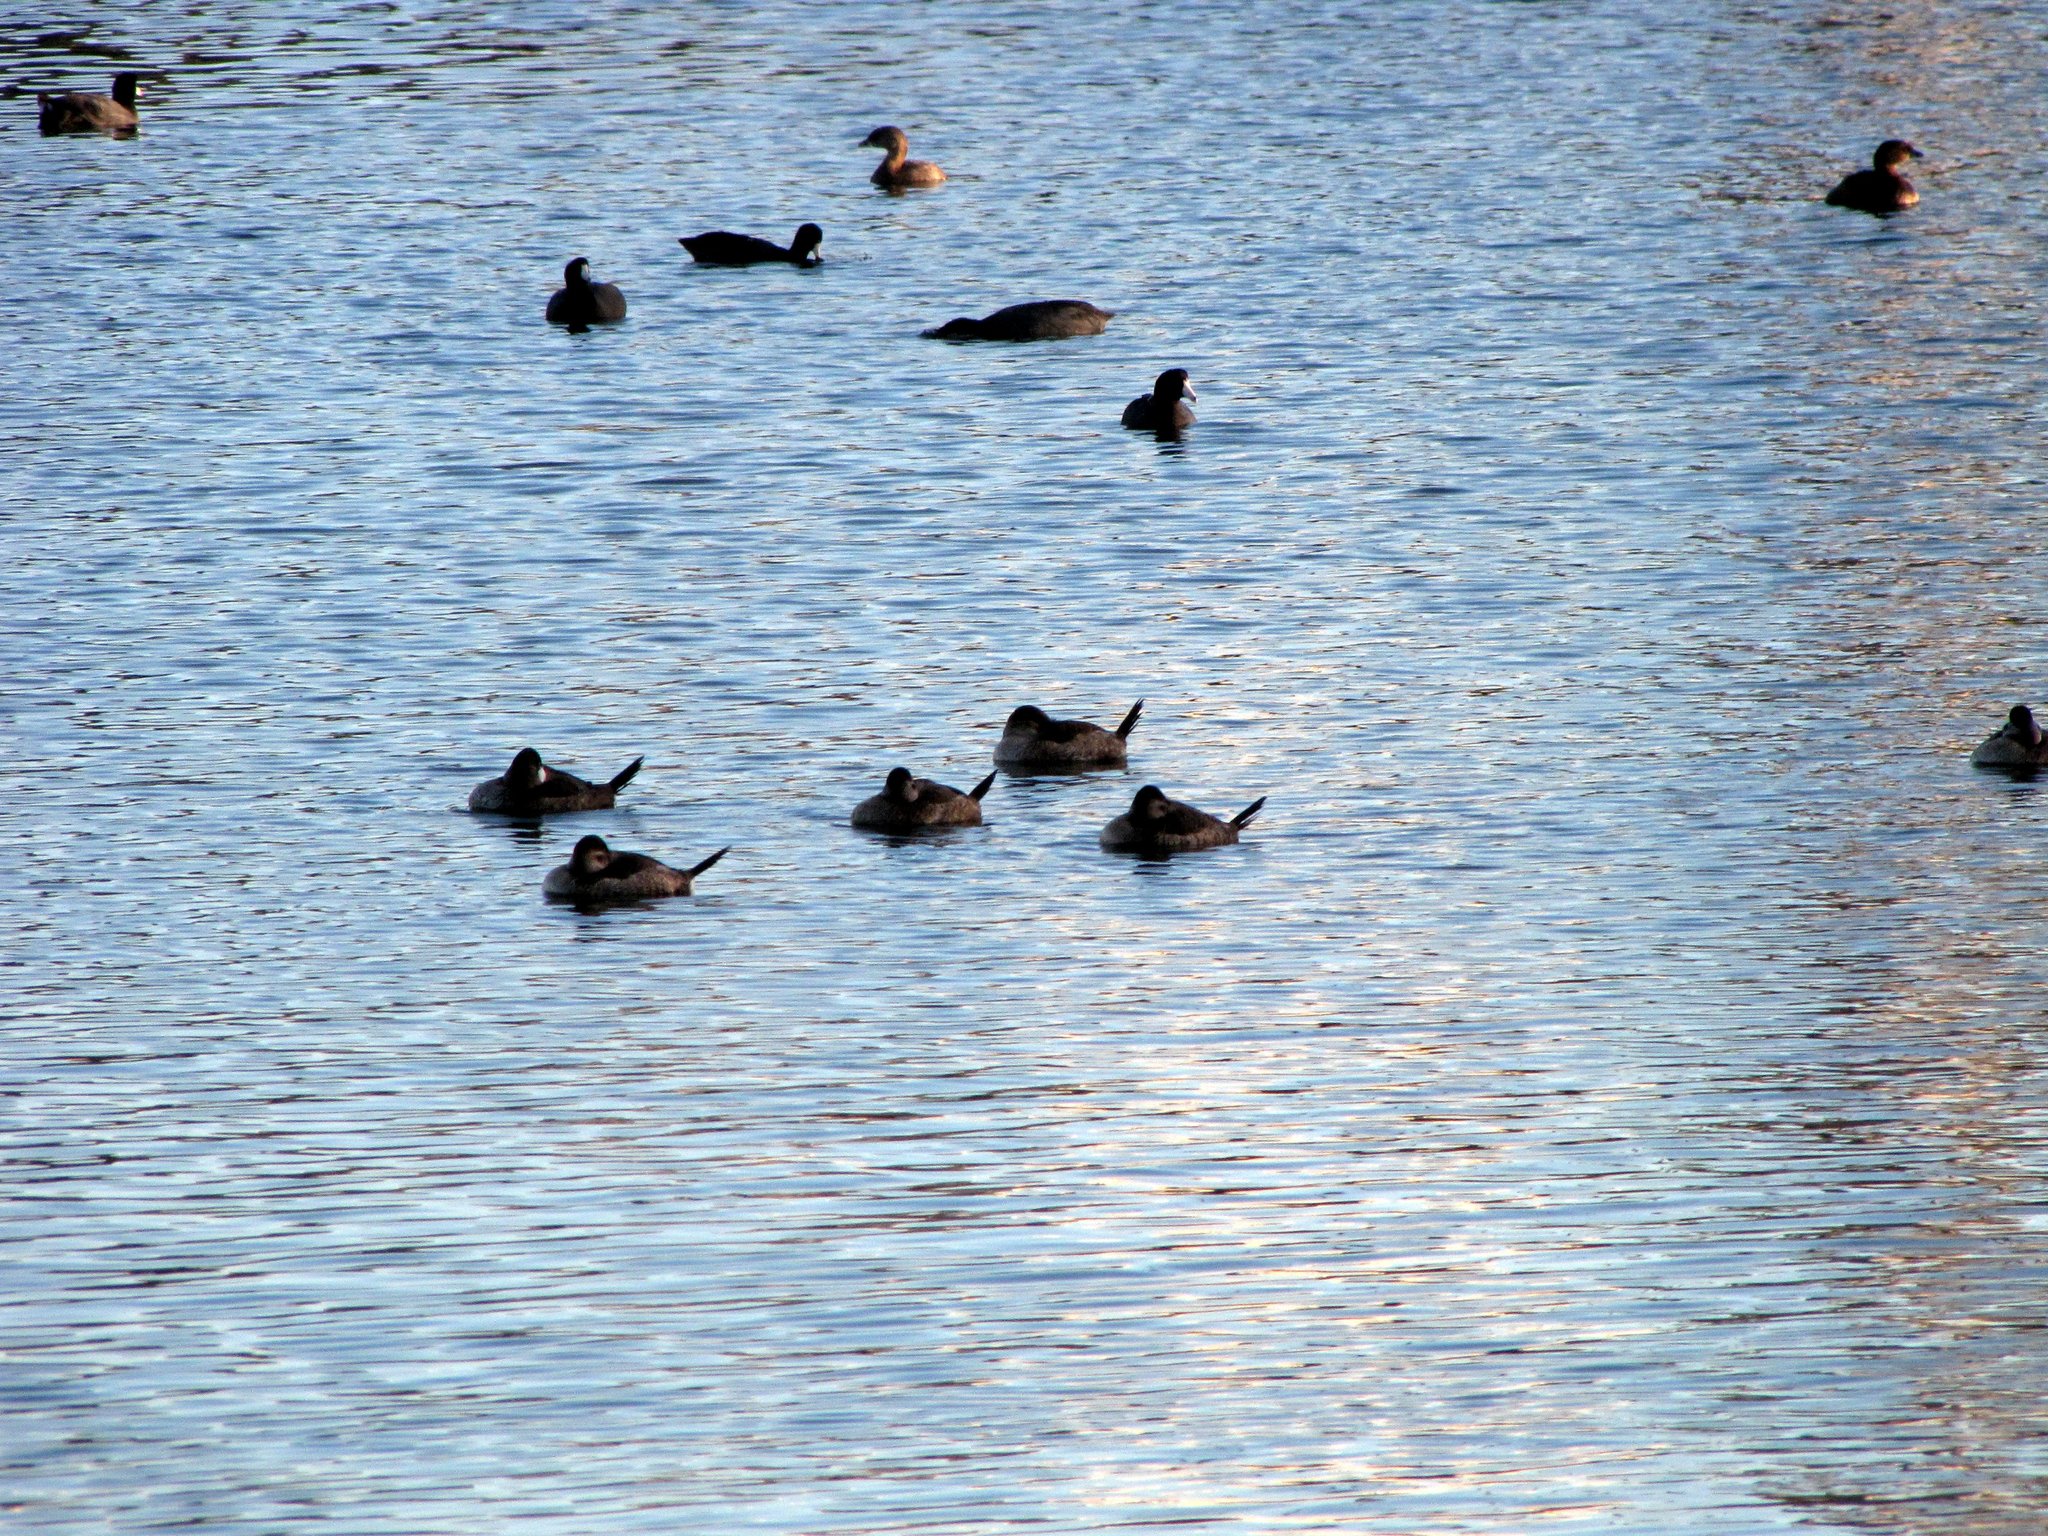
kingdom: Animalia
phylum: Chordata
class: Aves
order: Anseriformes
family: Anatidae
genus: Oxyura
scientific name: Oxyura jamaicensis
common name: Ruddy duck
